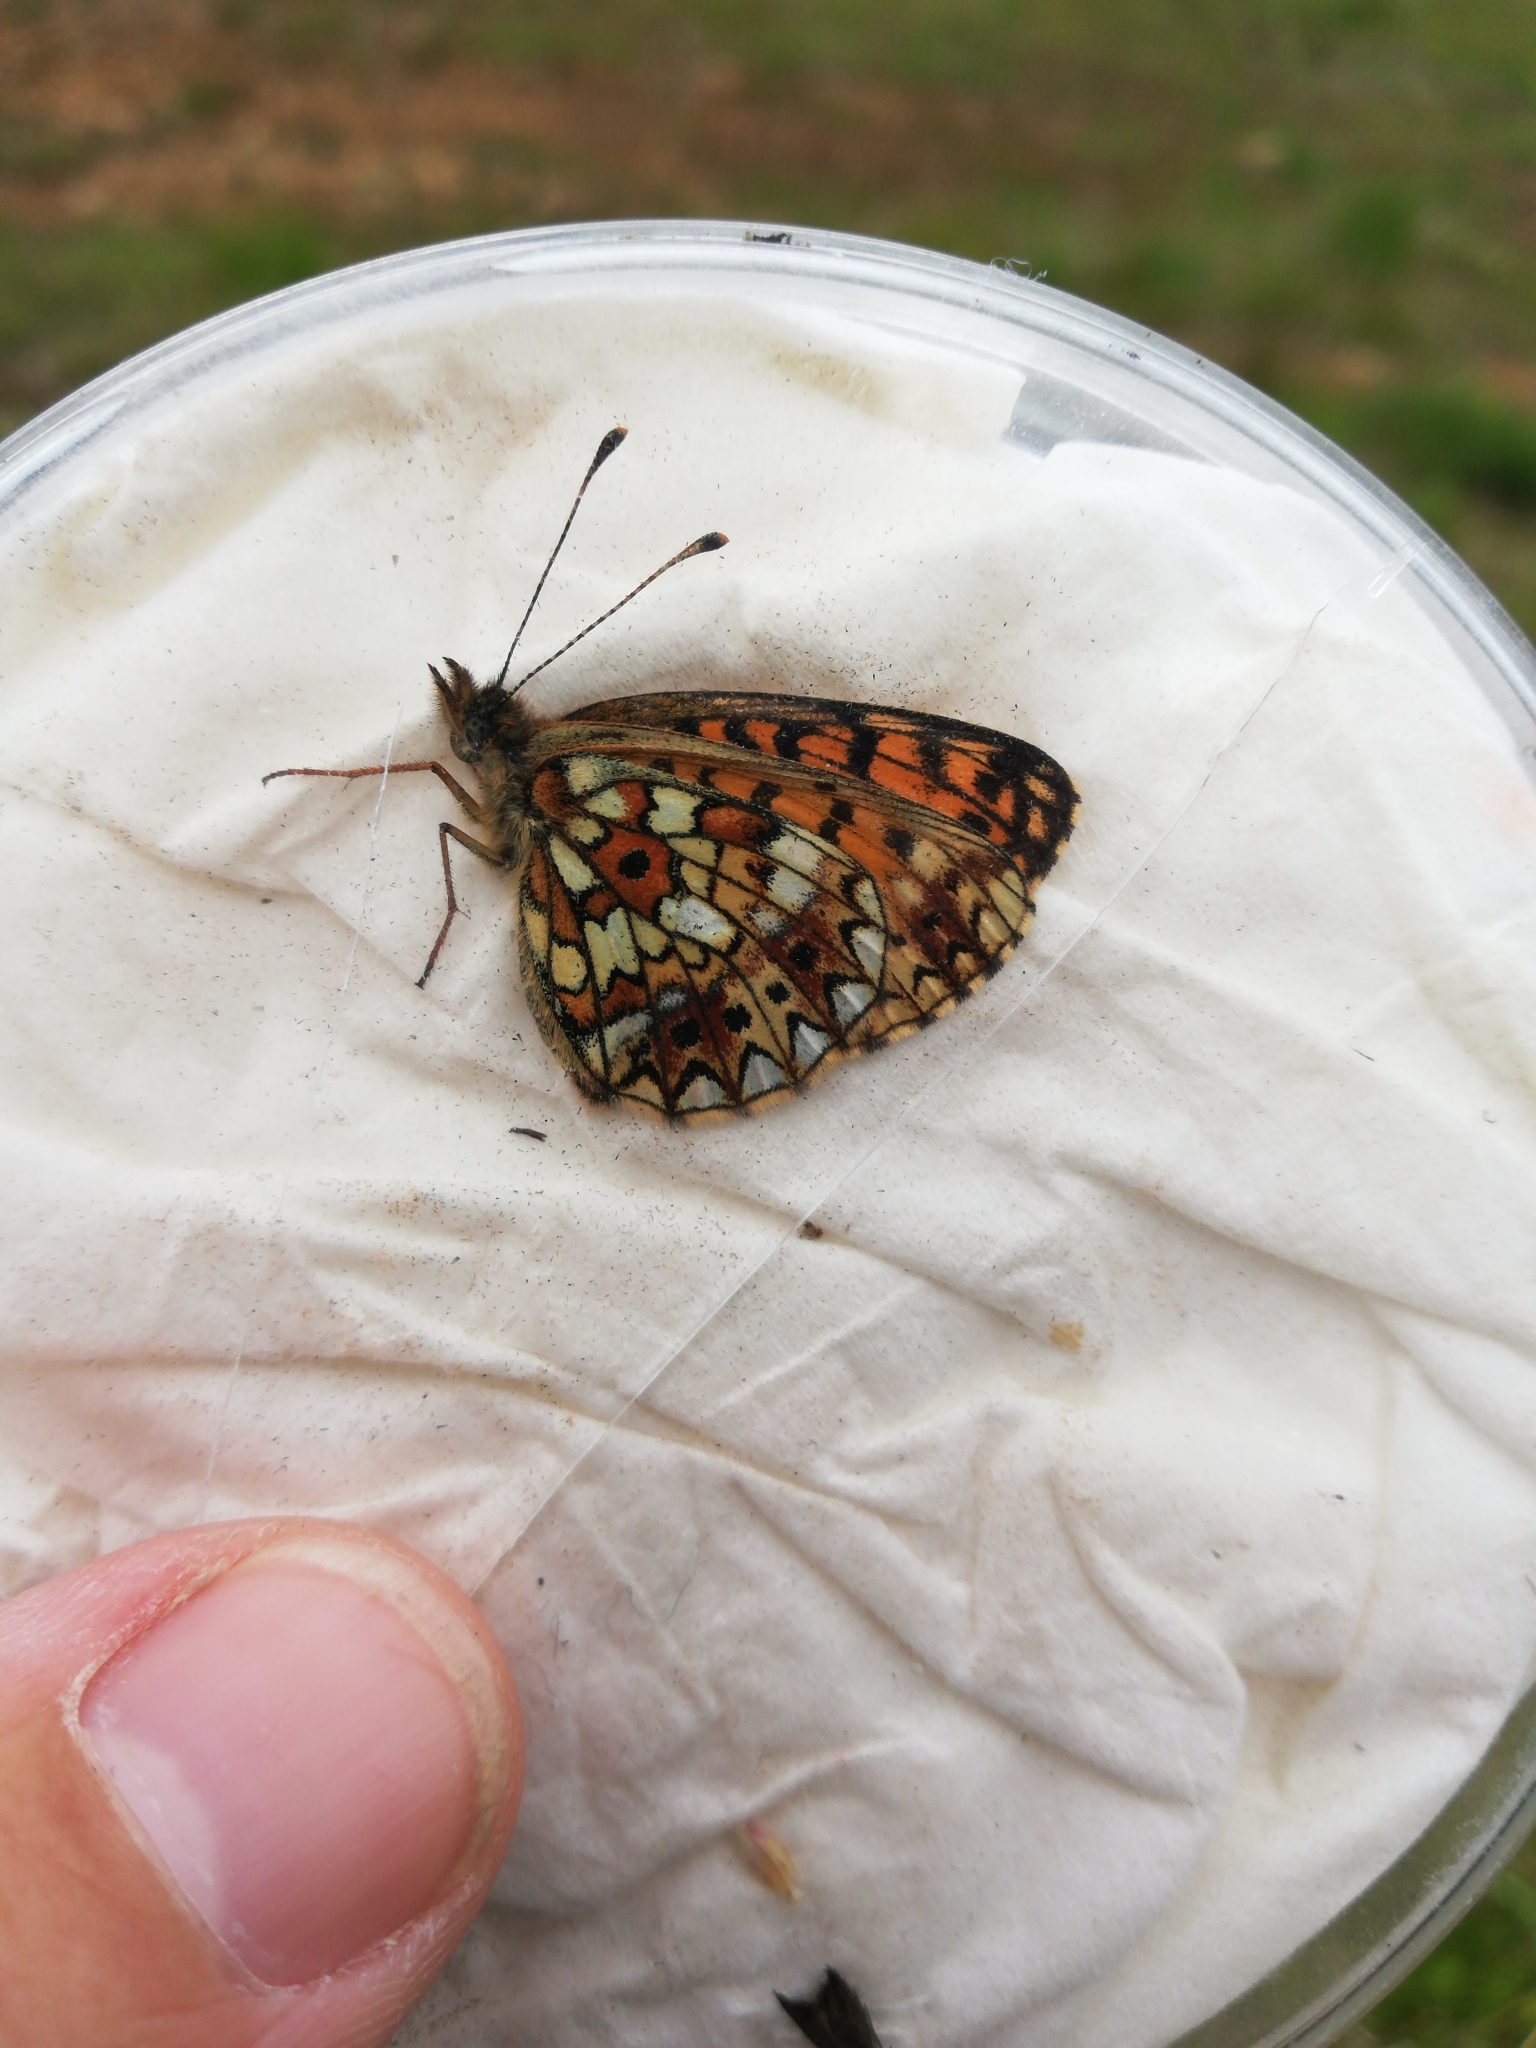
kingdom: Animalia
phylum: Arthropoda
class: Insecta
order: Lepidoptera
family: Nymphalidae
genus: Boloria
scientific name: Boloria selene
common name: Small pearl-bordered fritillary
